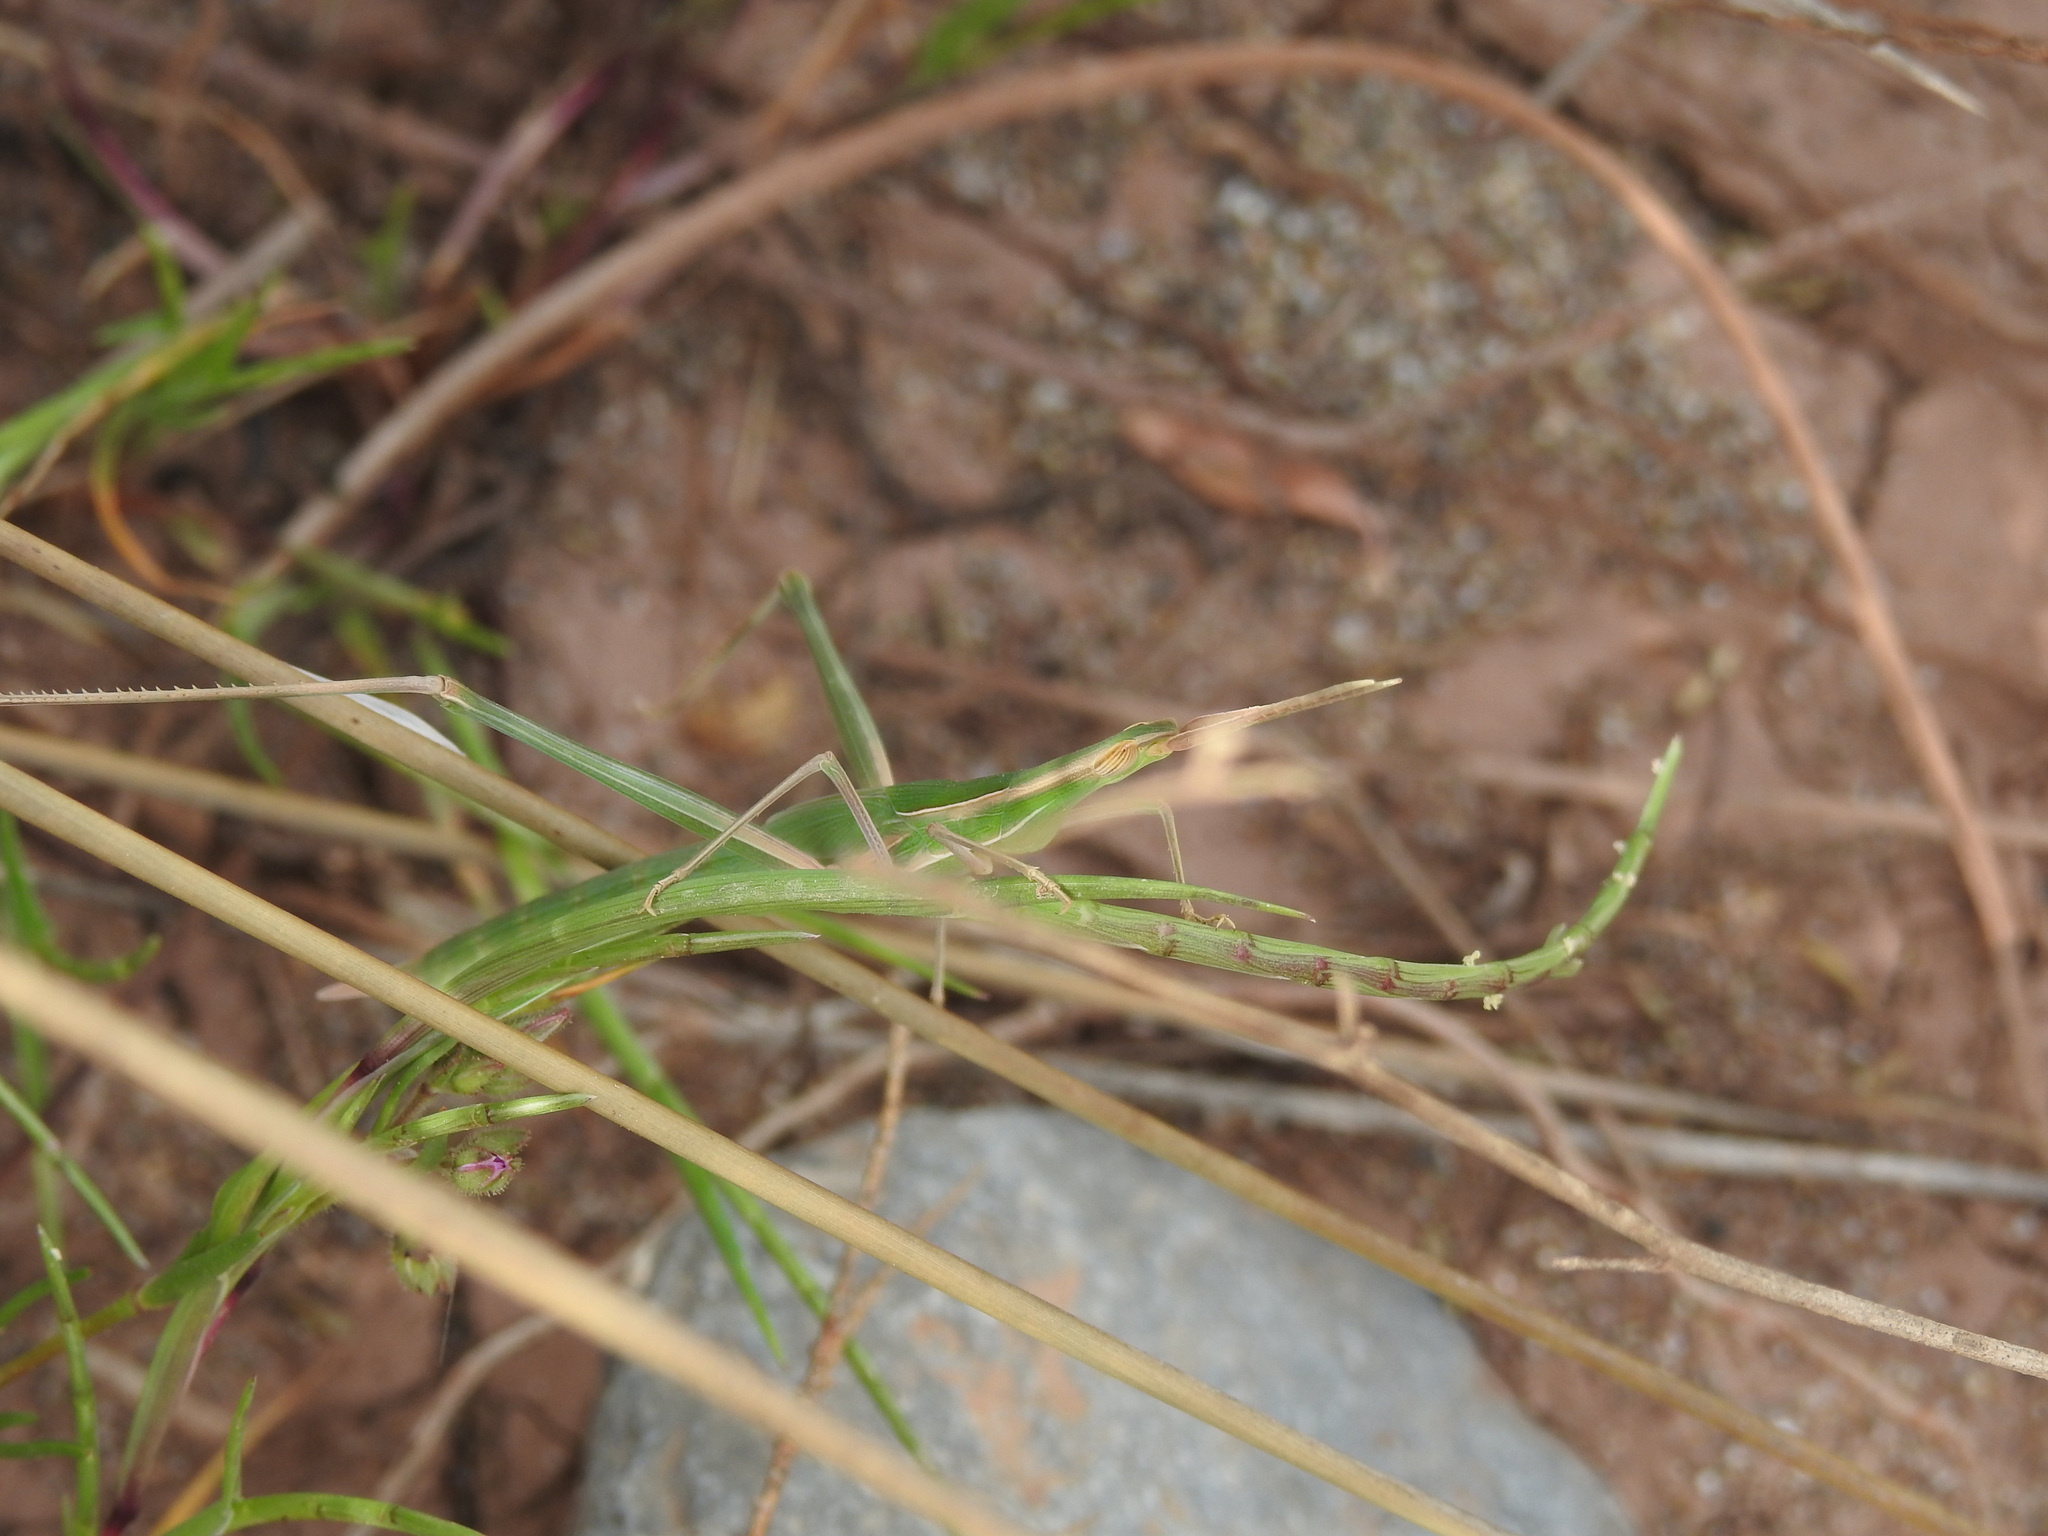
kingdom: Animalia
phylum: Arthropoda
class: Insecta
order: Orthoptera
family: Acrididae
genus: Truxalis
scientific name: Truxalis nasuta
